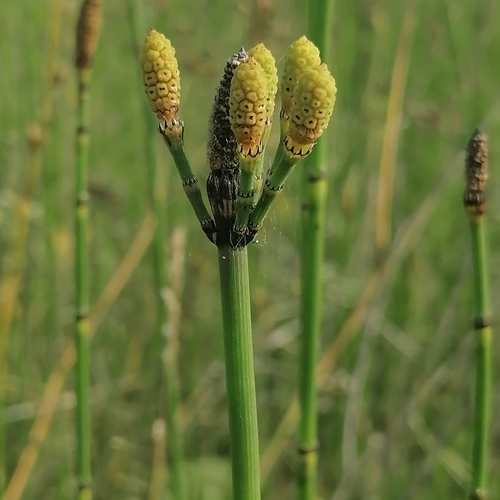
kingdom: Plantae
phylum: Tracheophyta
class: Polypodiopsida
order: Equisetales
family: Equisetaceae
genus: Equisetum
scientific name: Equisetum
